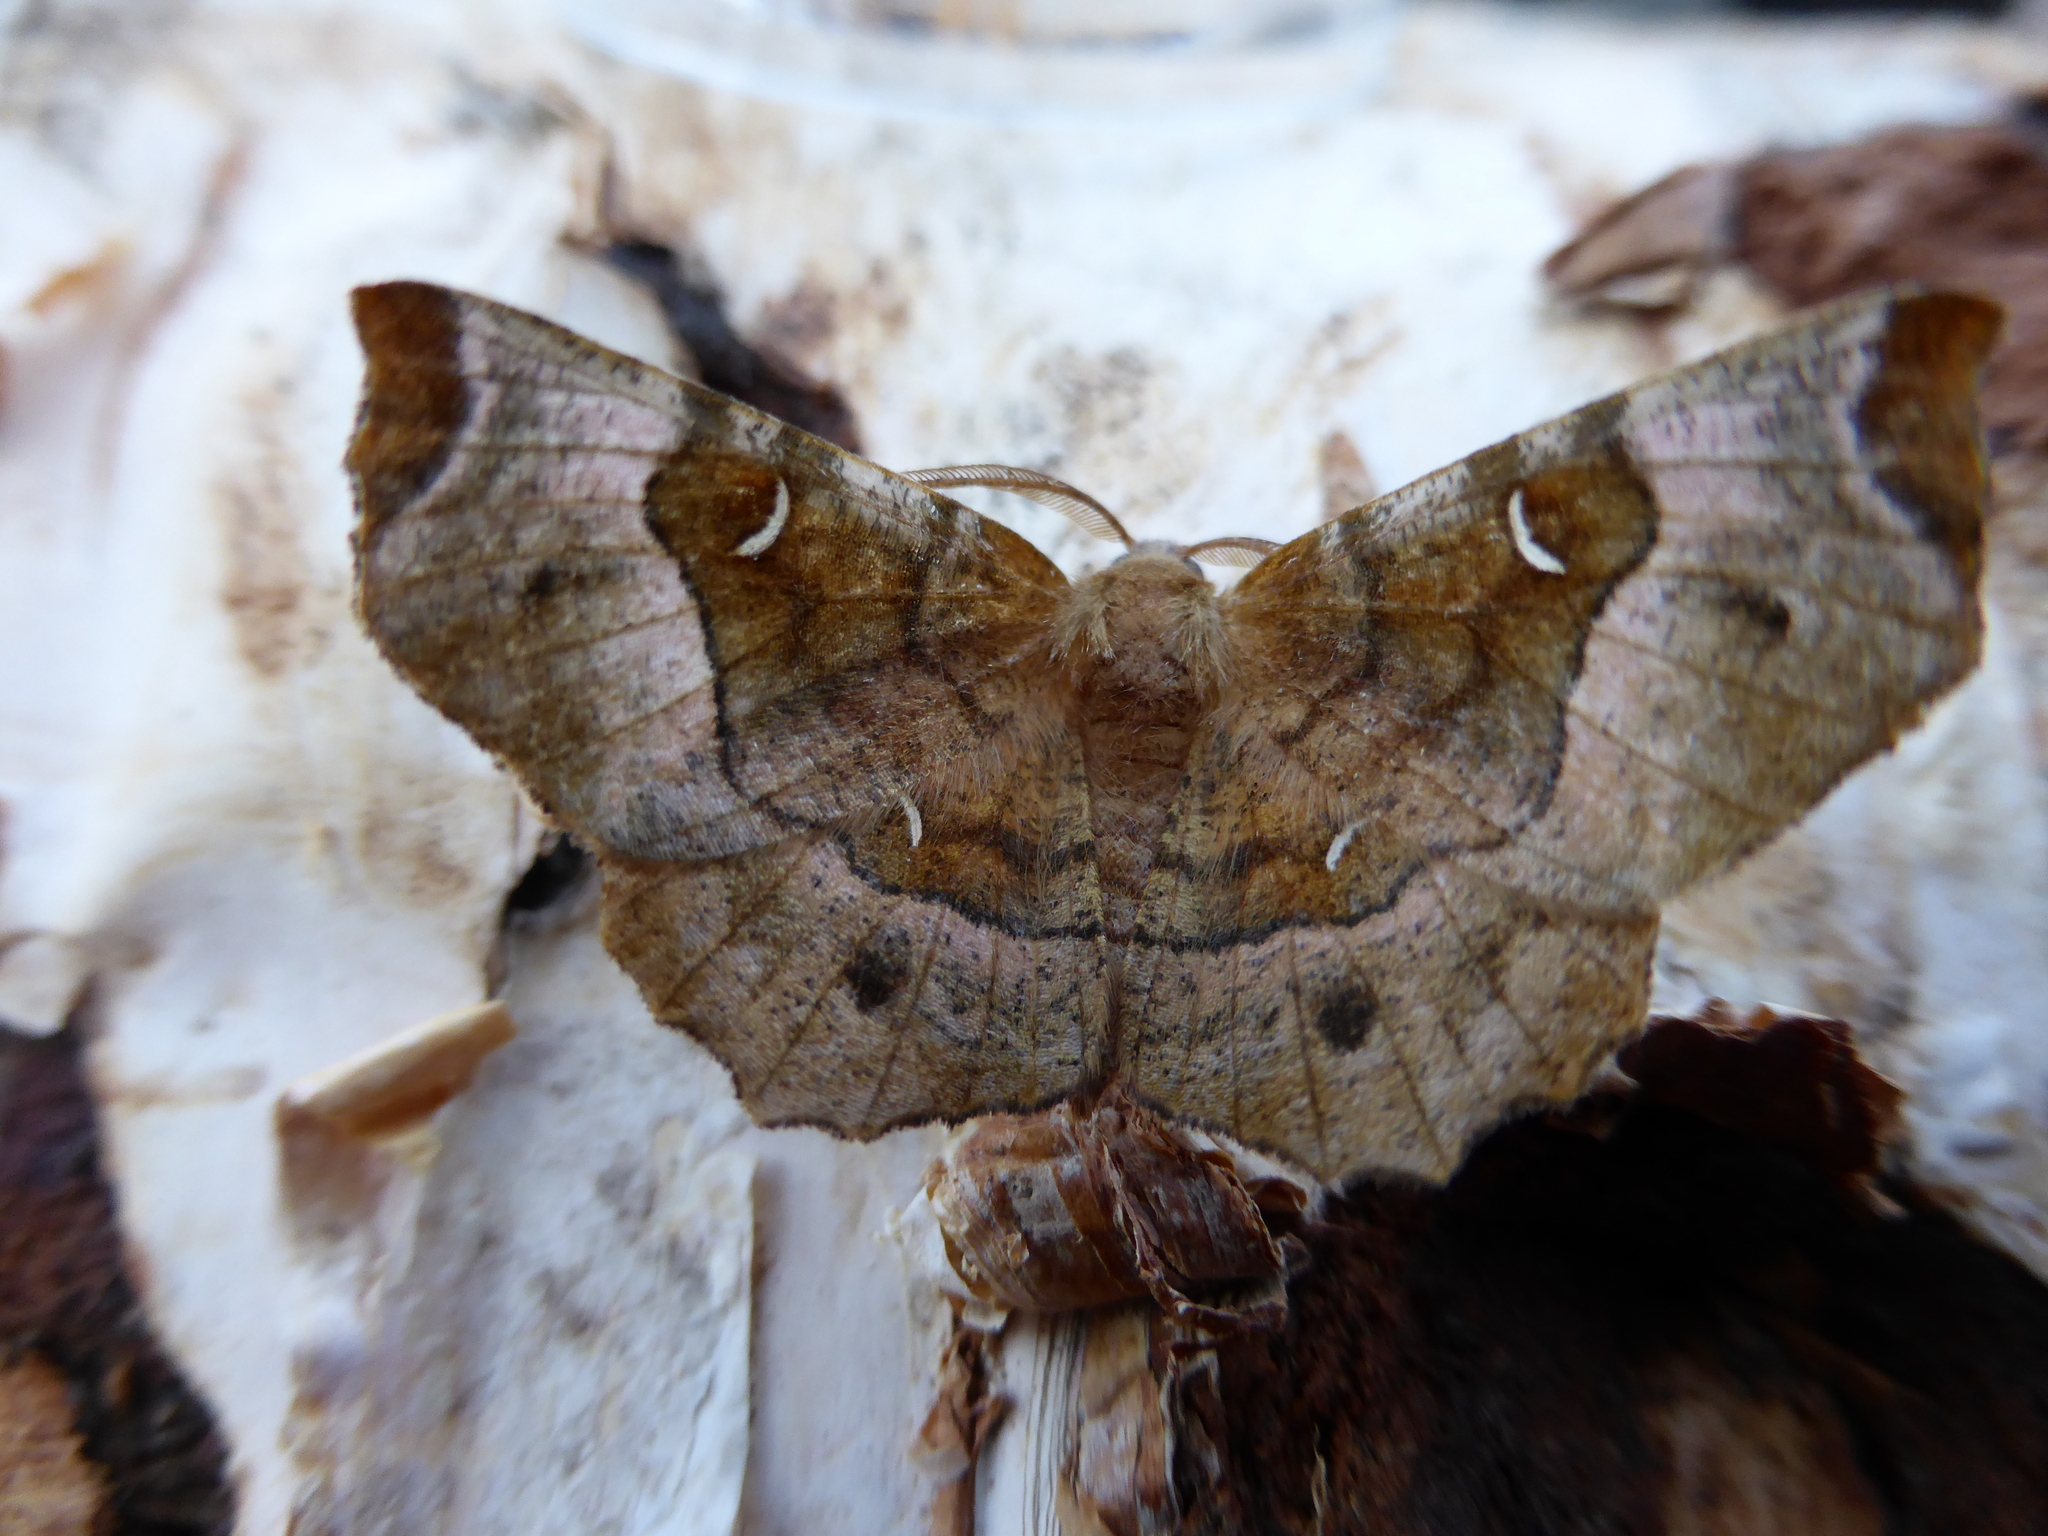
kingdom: Animalia
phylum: Arthropoda
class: Insecta
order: Lepidoptera
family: Geometridae
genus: Selenia
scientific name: Selenia tetralunaria
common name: Purple thorn
